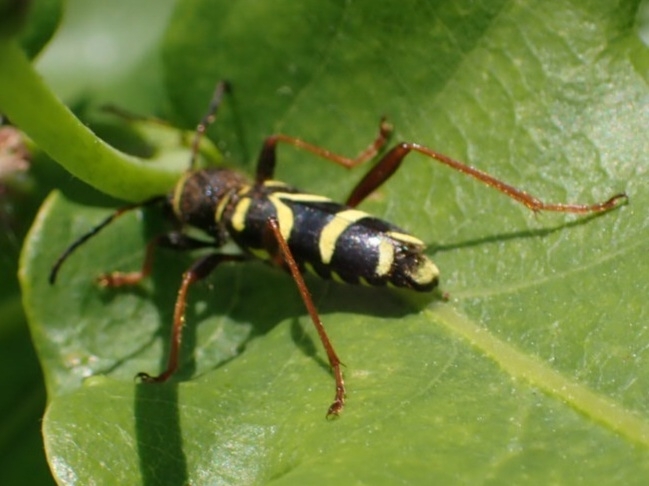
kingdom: Animalia
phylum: Arthropoda
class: Insecta
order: Coleoptera
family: Cerambycidae
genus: Clytus
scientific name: Clytus arietis
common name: Wasp beetle
